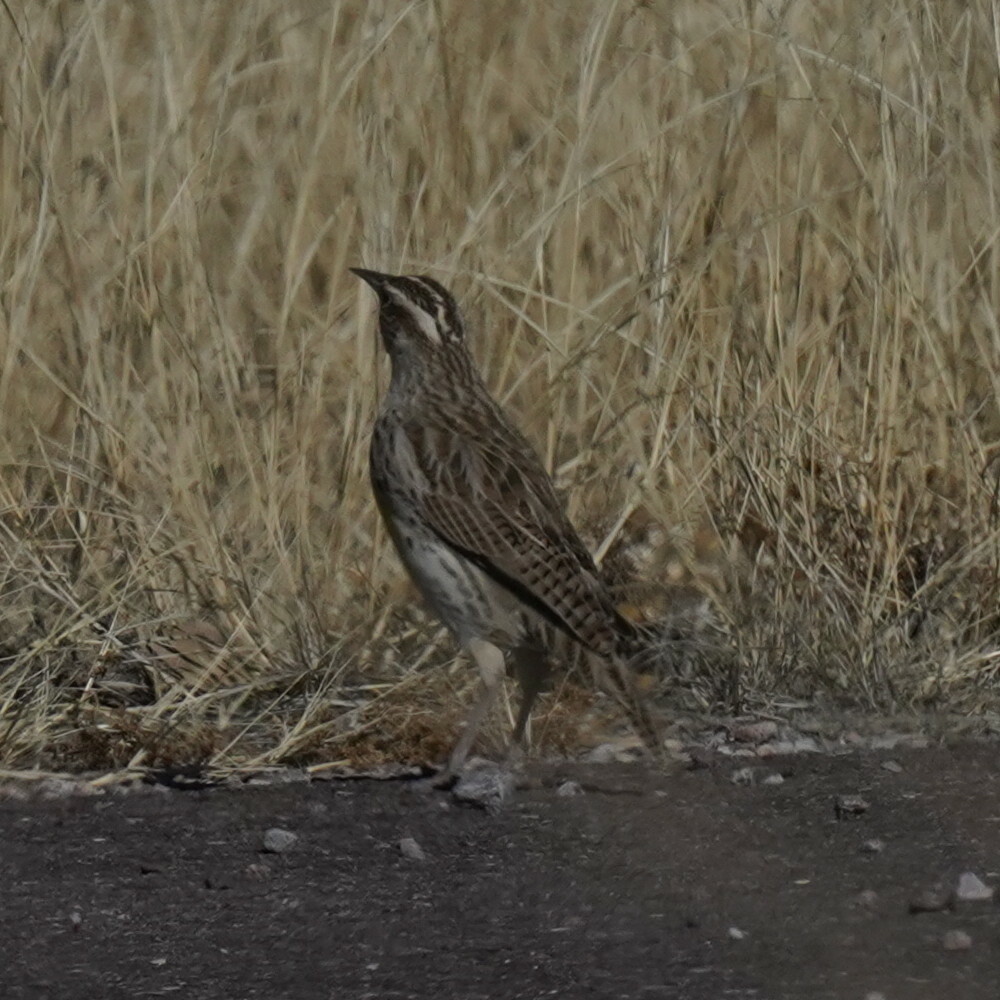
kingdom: Animalia
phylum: Chordata
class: Aves
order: Passeriformes
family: Icteridae
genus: Sturnella
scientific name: Sturnella neglecta
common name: Western meadowlark
